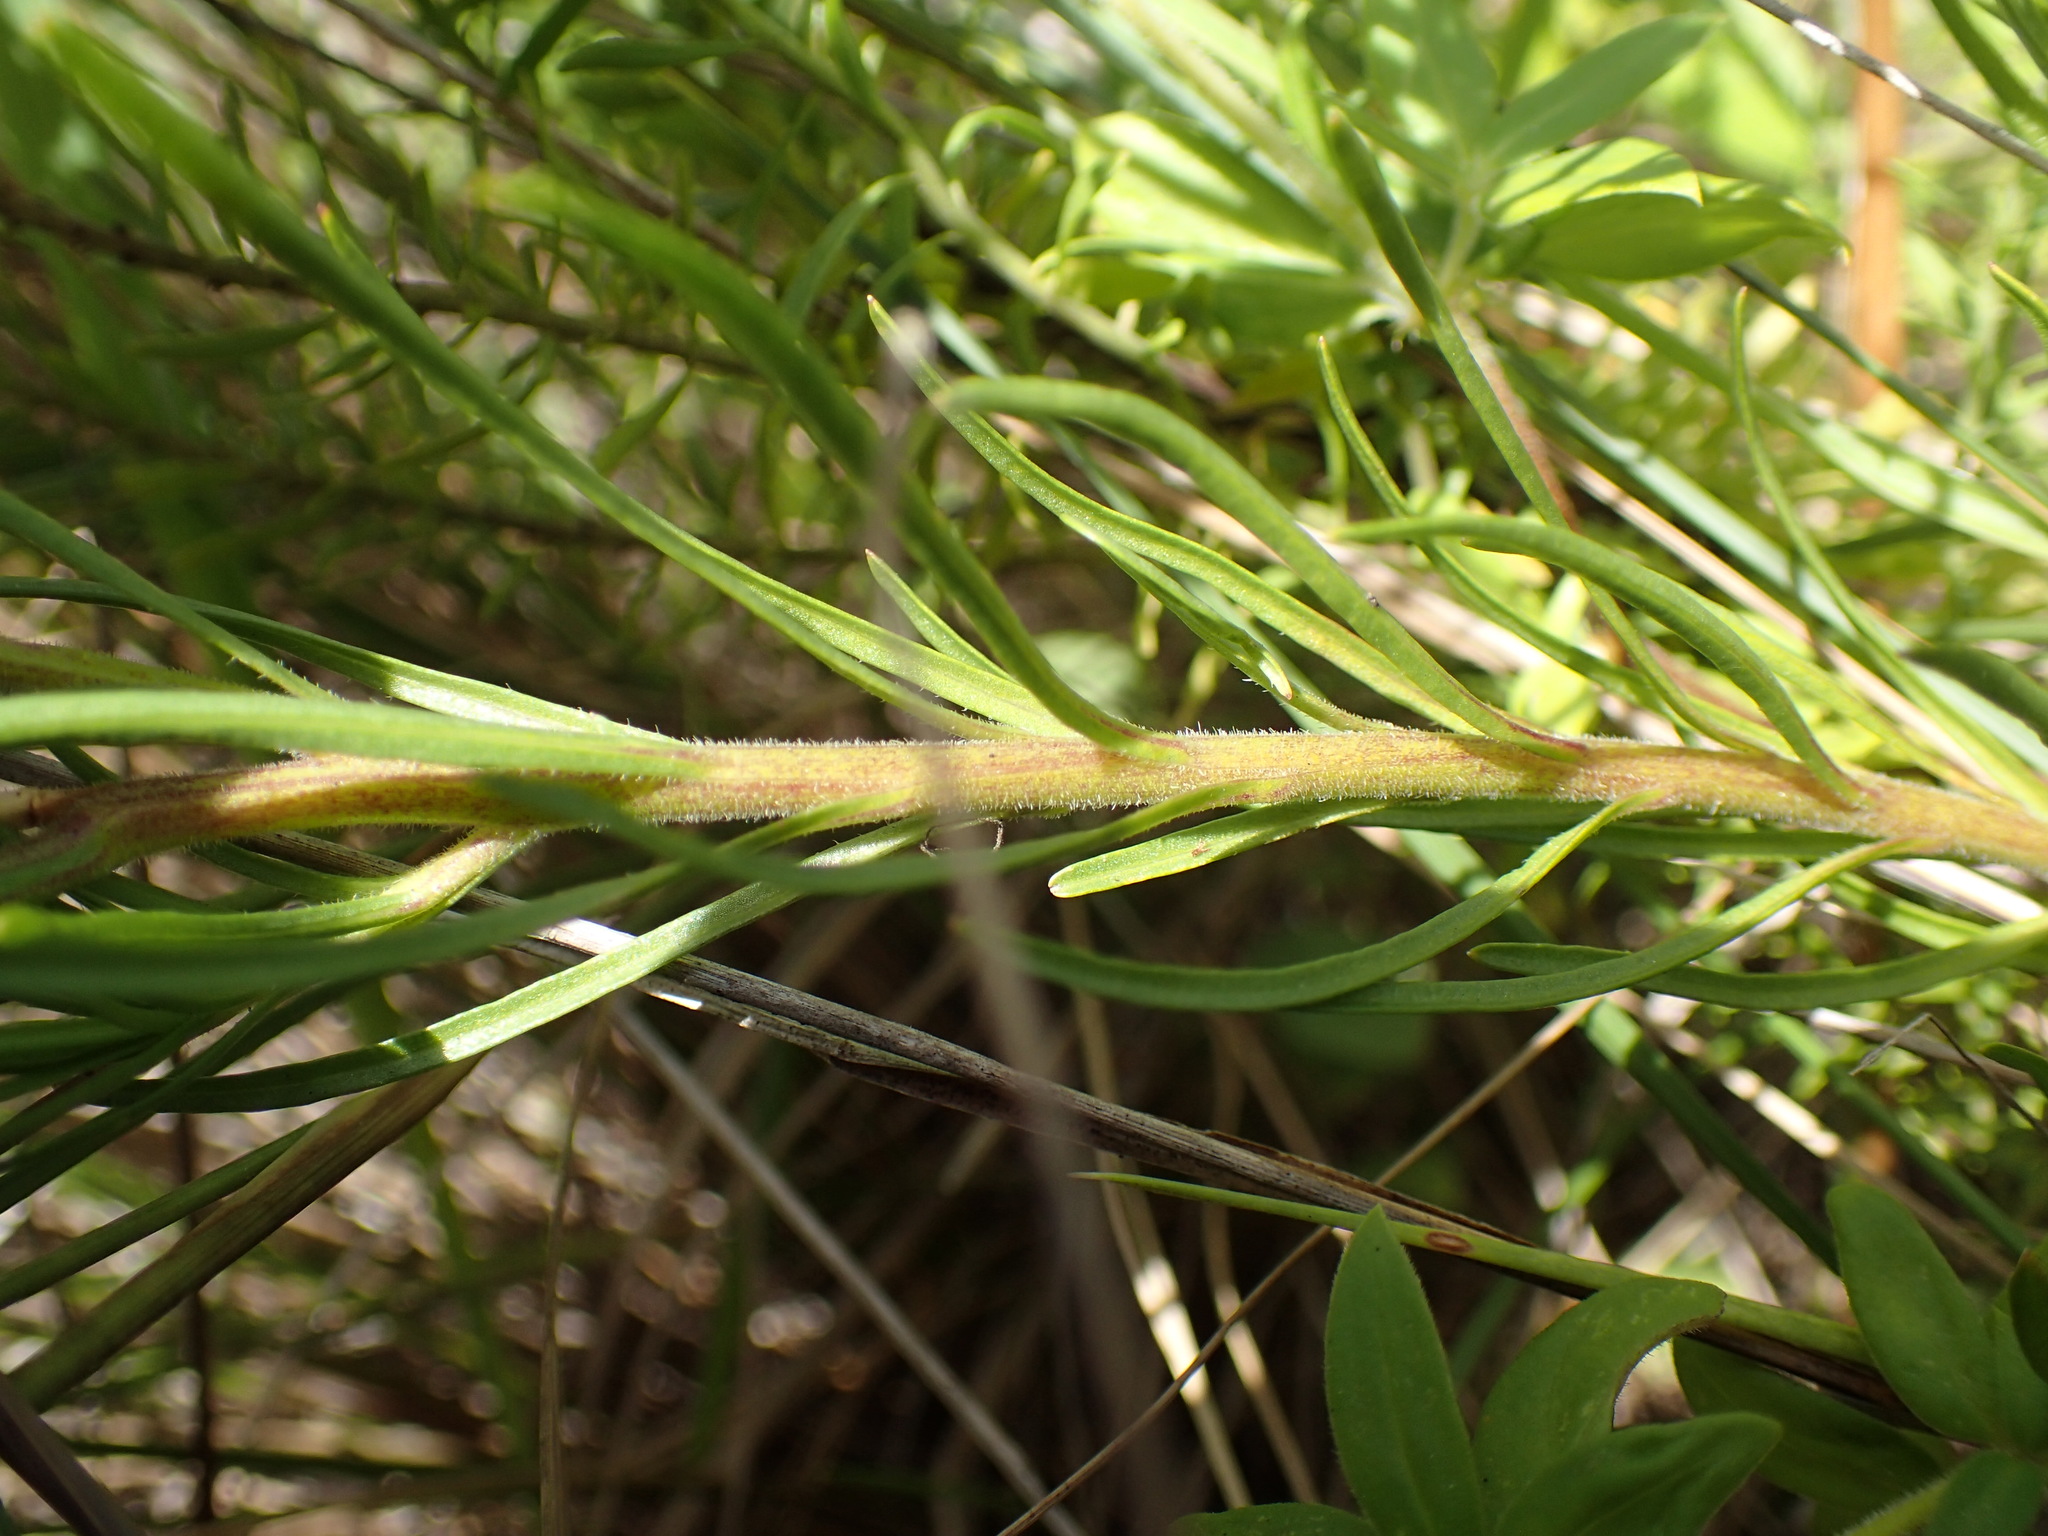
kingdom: Plantae
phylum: Tracheophyta
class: Magnoliopsida
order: Asterales
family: Campanulaceae
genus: Lobelia
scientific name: Lobelia caerulea
